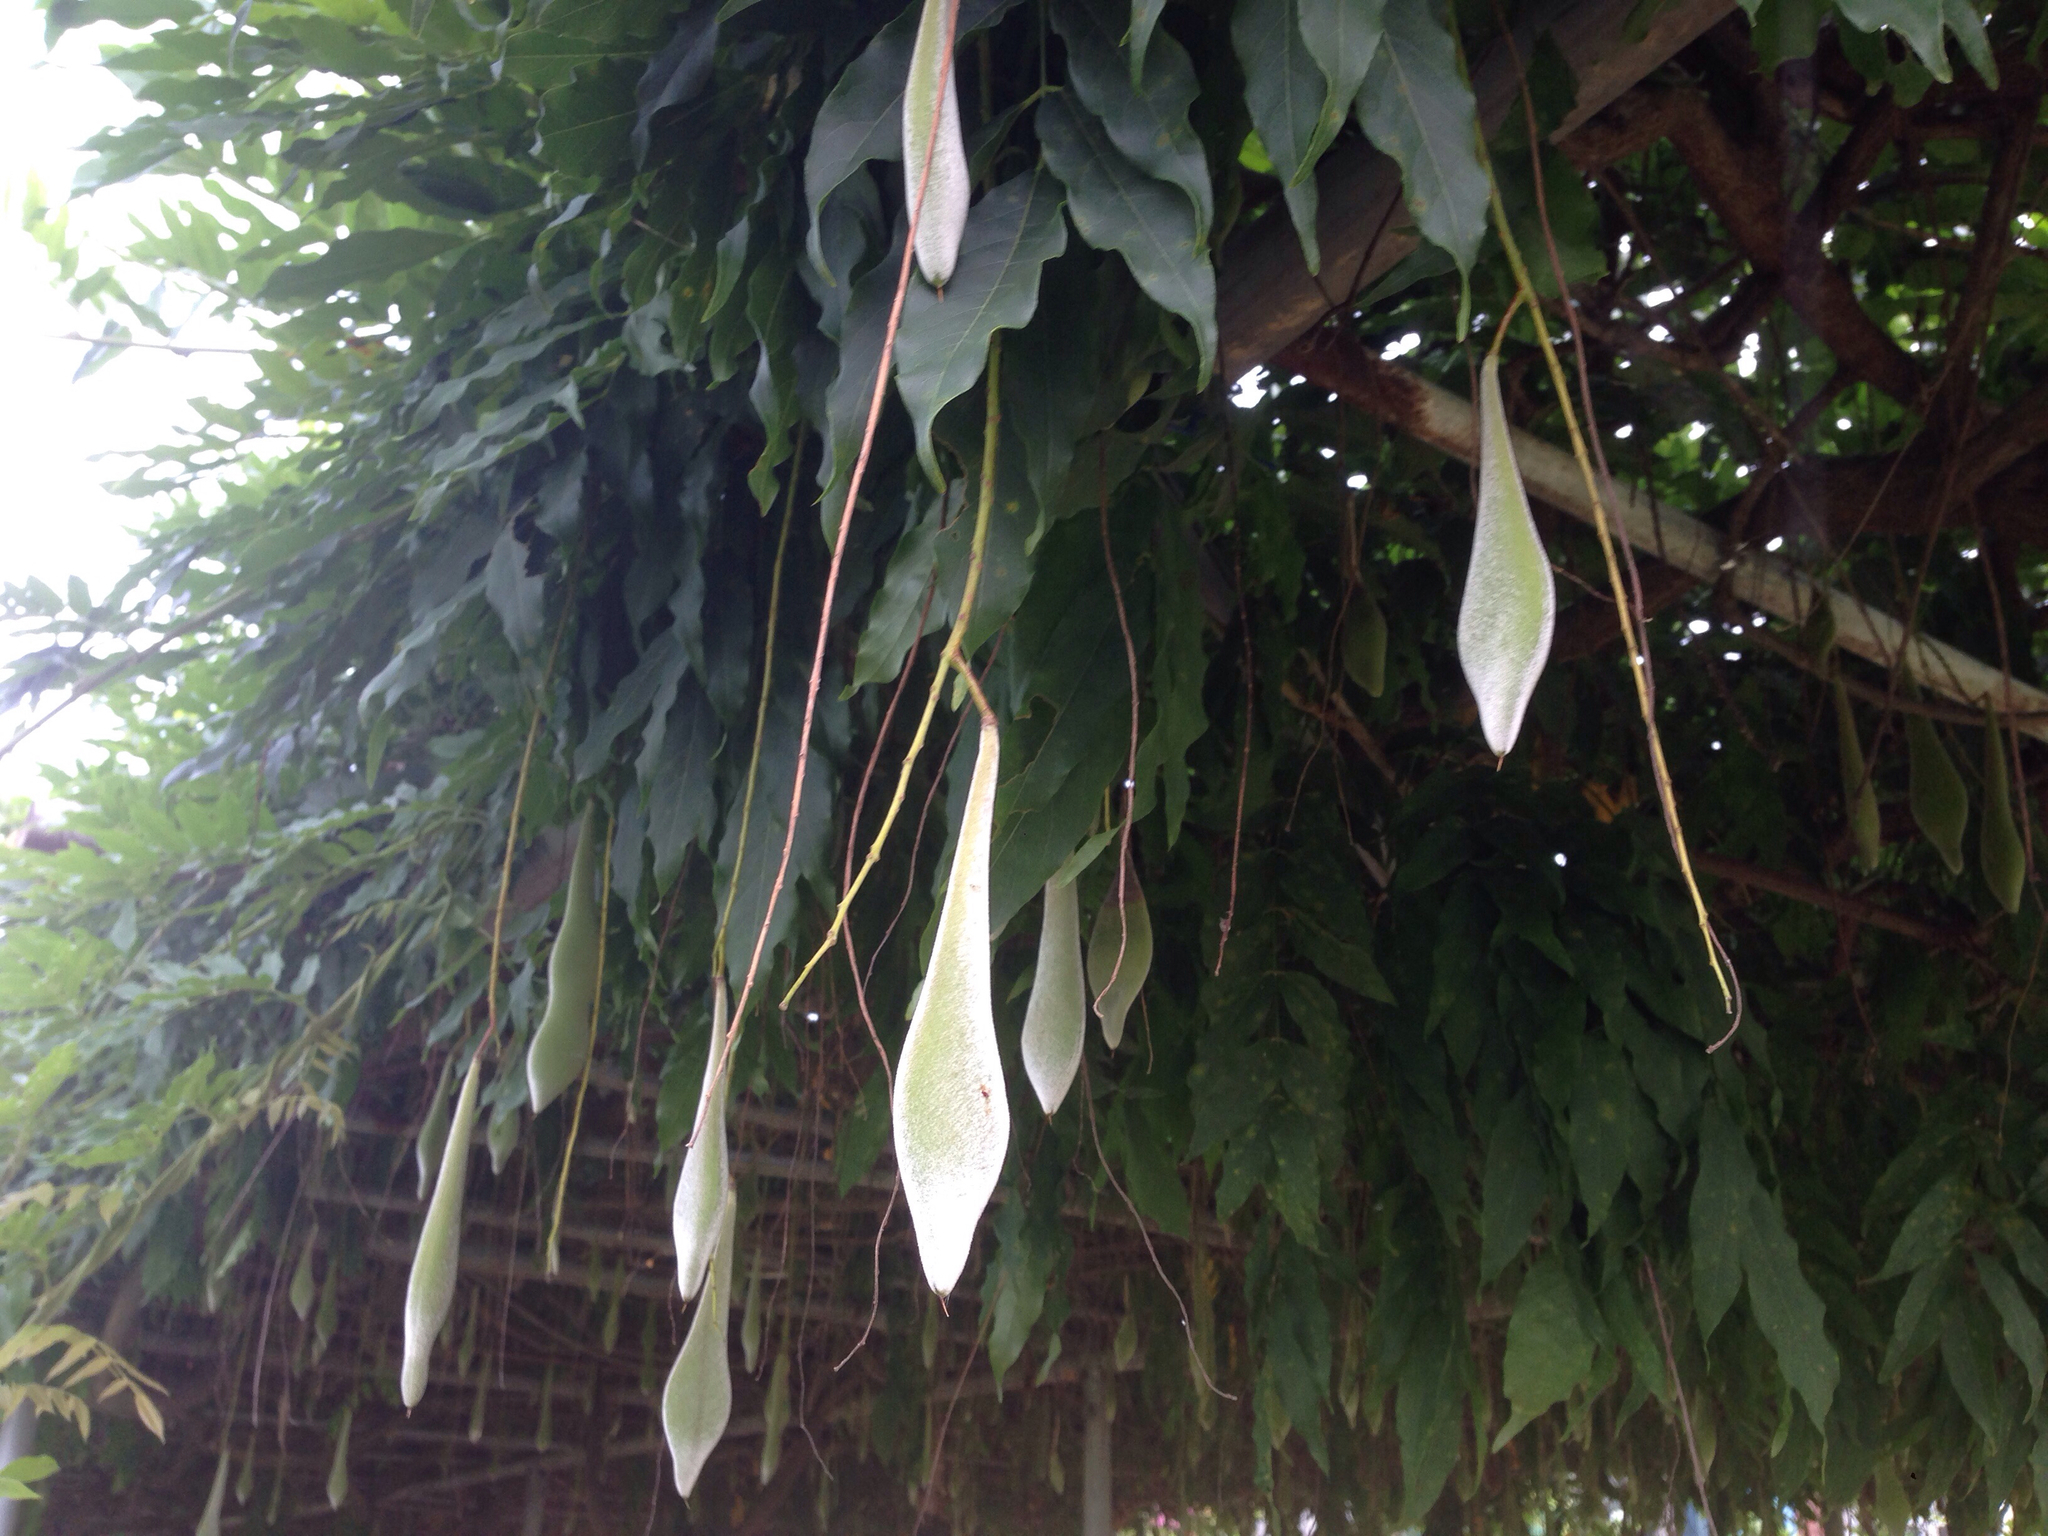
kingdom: Plantae
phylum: Tracheophyta
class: Magnoliopsida
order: Fabales
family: Fabaceae
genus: Wisteria
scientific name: Wisteria floribunda
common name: Japanese wisteria
